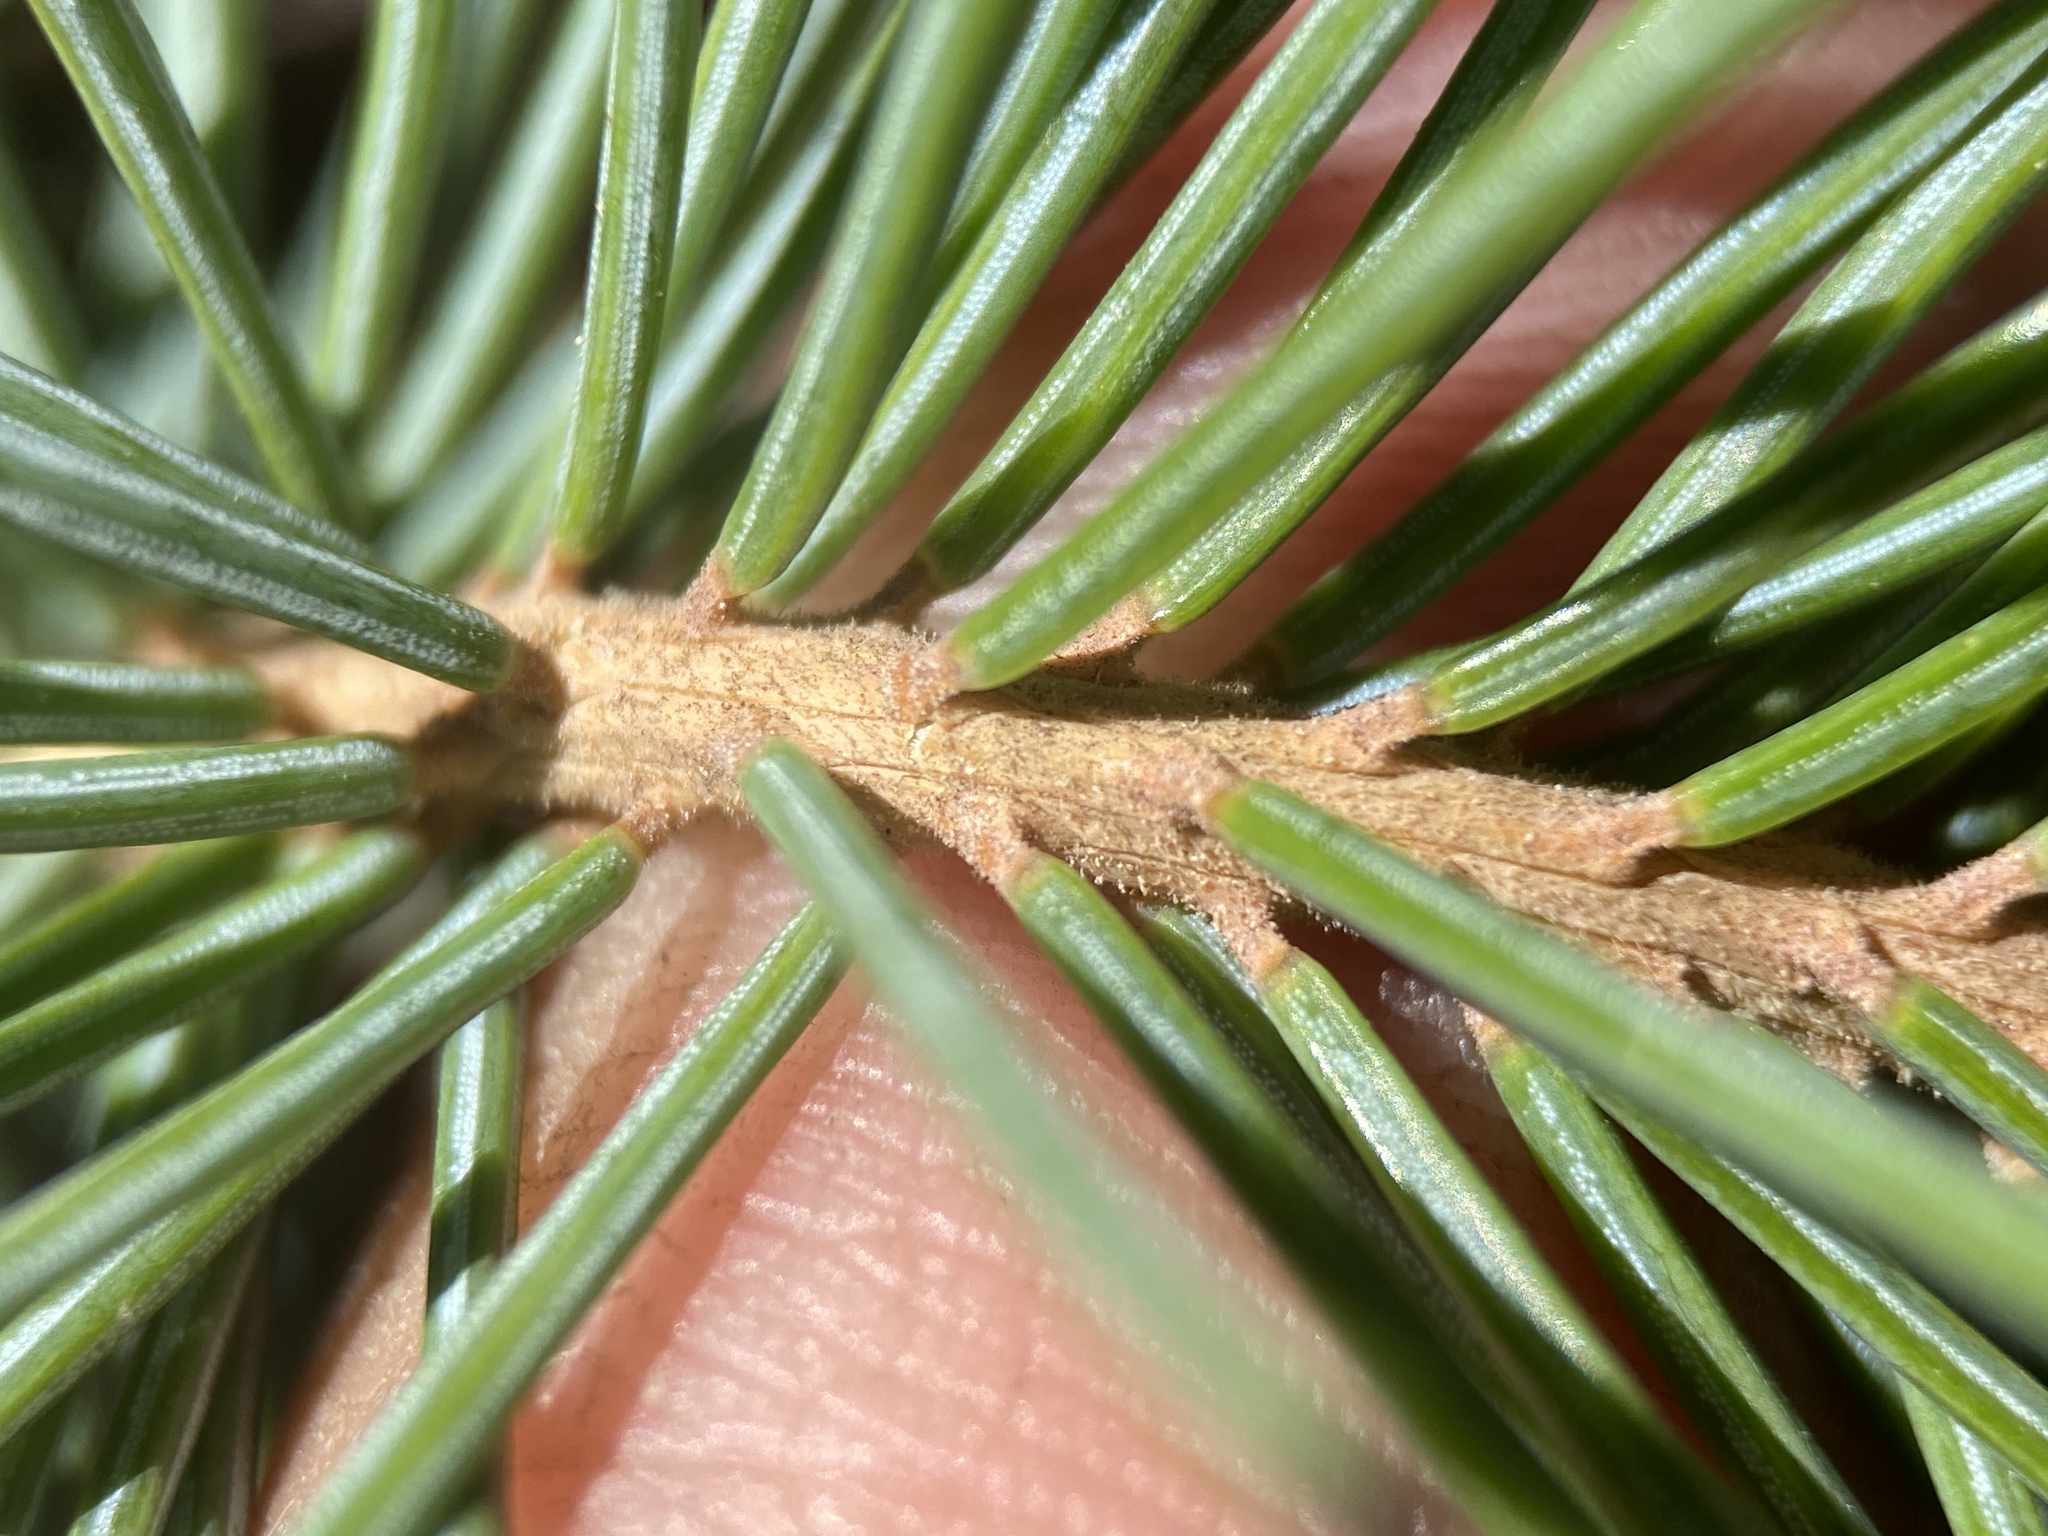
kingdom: Plantae
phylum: Tracheophyta
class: Pinopsida
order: Pinales
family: Pinaceae
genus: Picea
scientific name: Picea engelmannii
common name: Engelmann spruce
